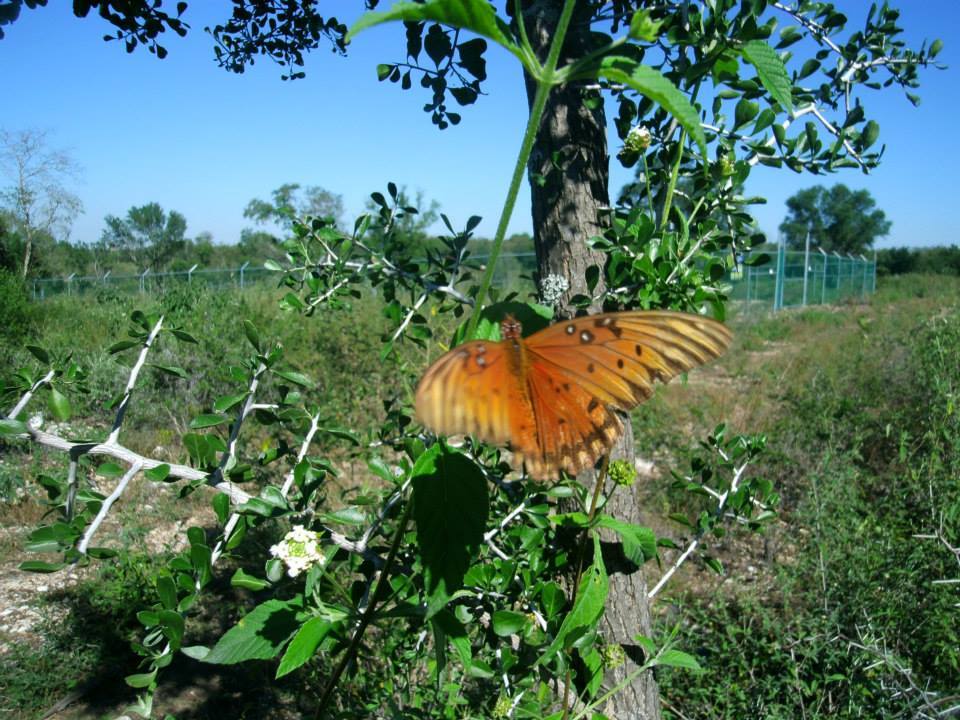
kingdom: Animalia
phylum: Arthropoda
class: Insecta
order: Lepidoptera
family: Nymphalidae
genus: Dione
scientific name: Dione vanillae
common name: Gulf fritillary
